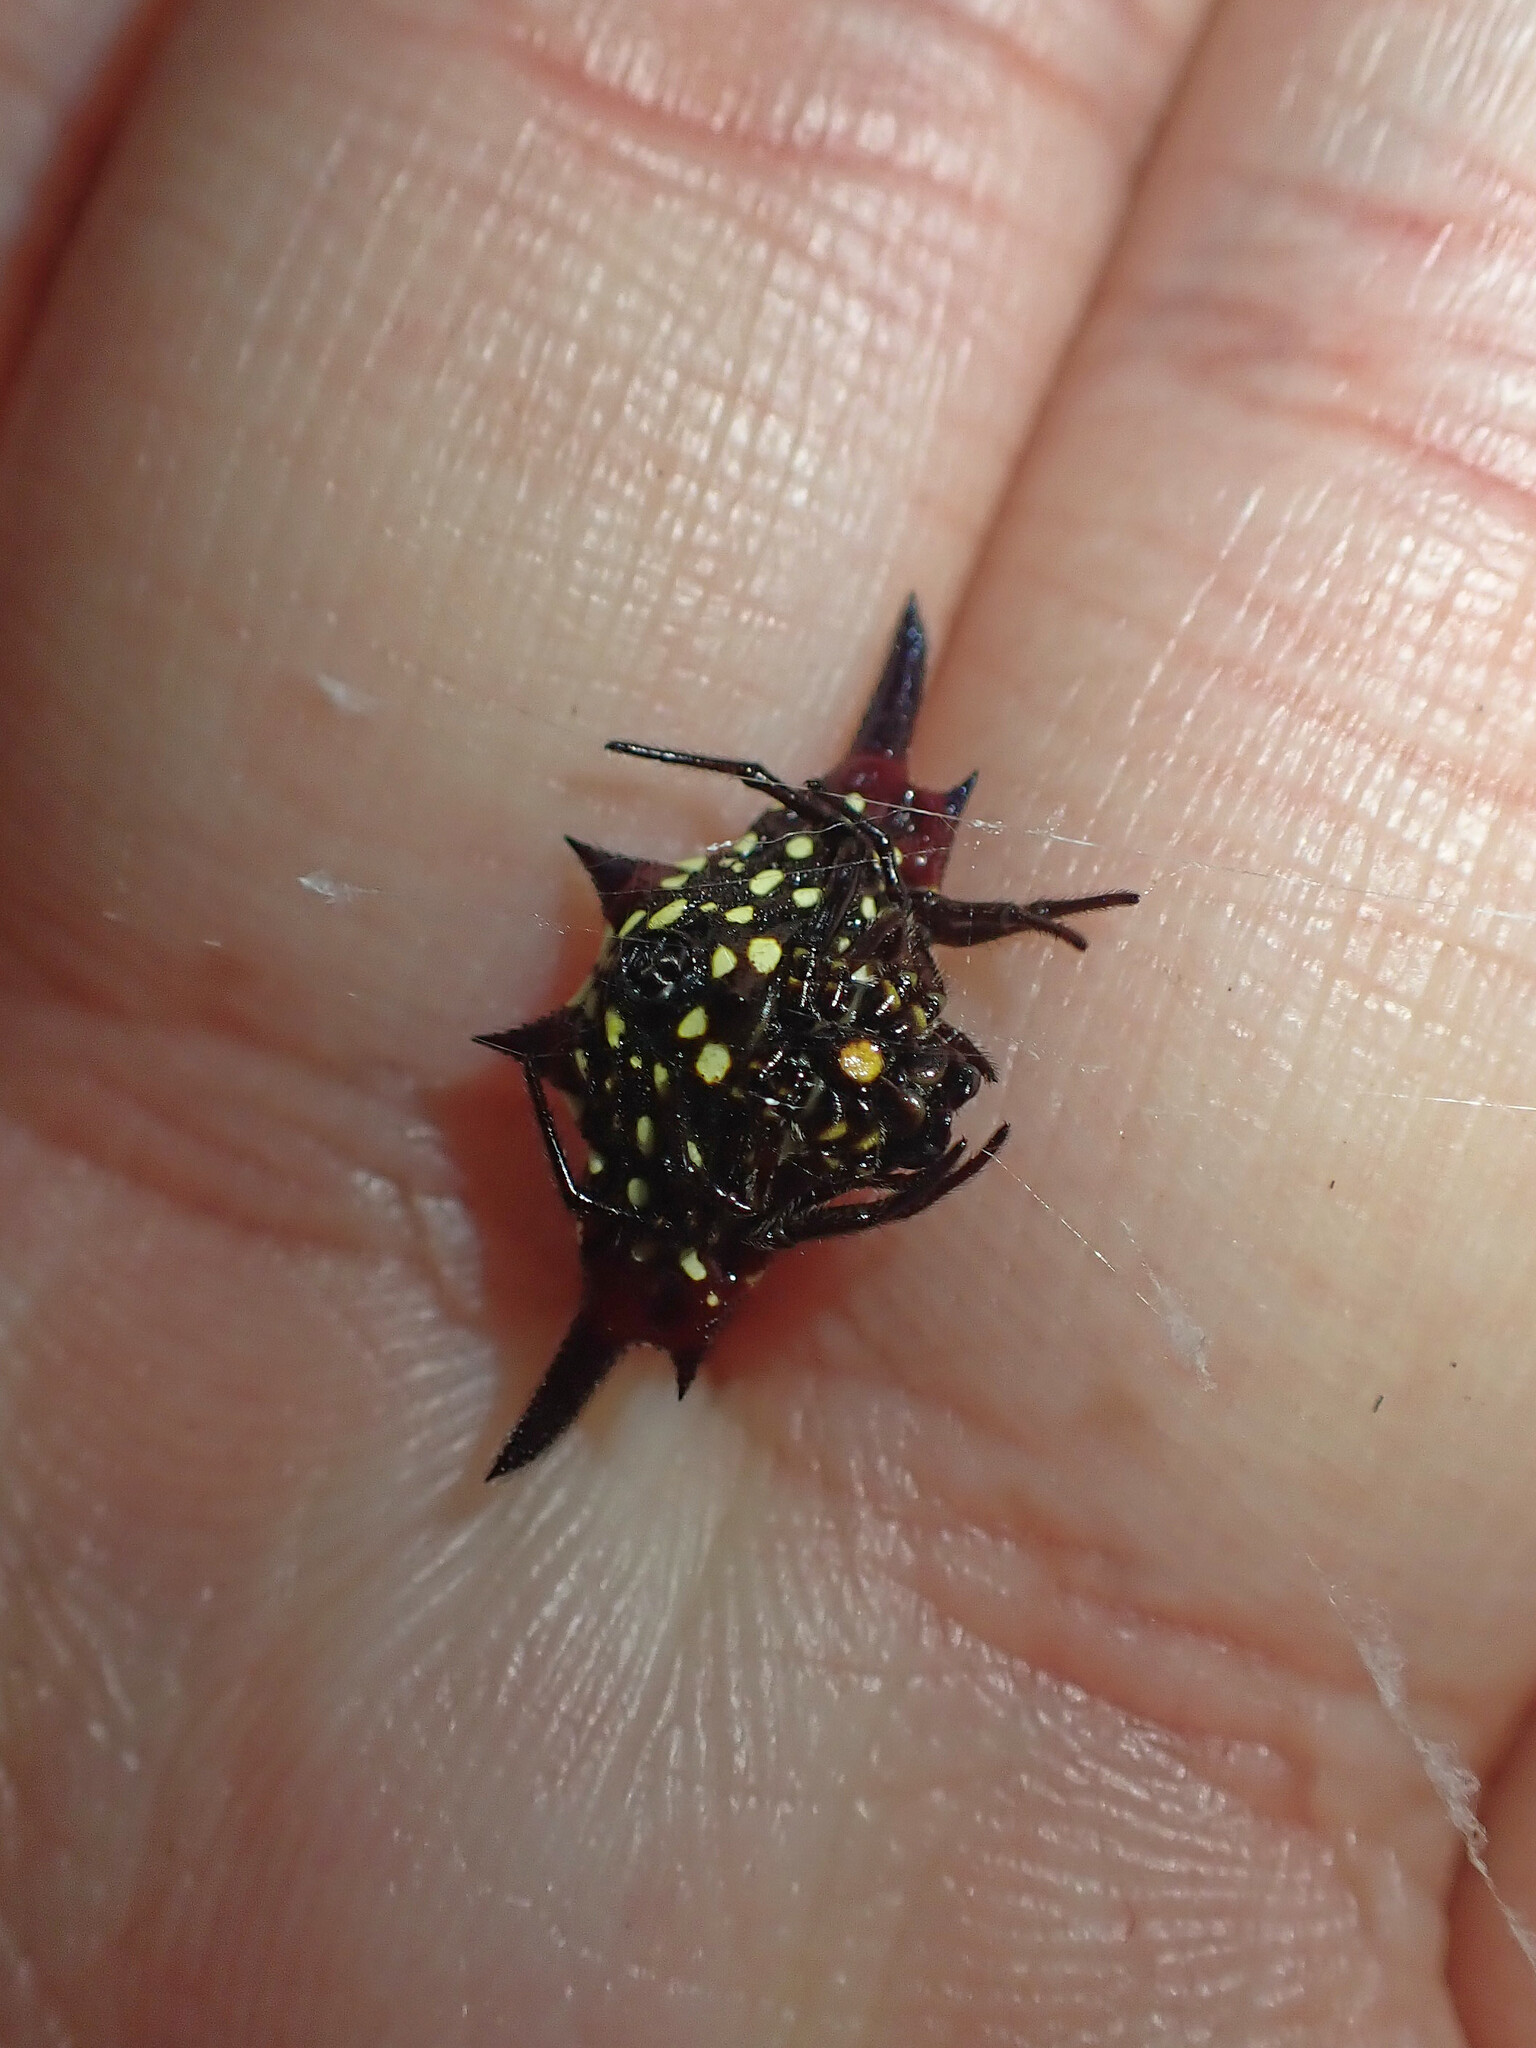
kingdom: Animalia
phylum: Arthropoda
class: Arachnida
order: Araneae
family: Araneidae
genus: Gasteracantha
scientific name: Gasteracantha fornicata
